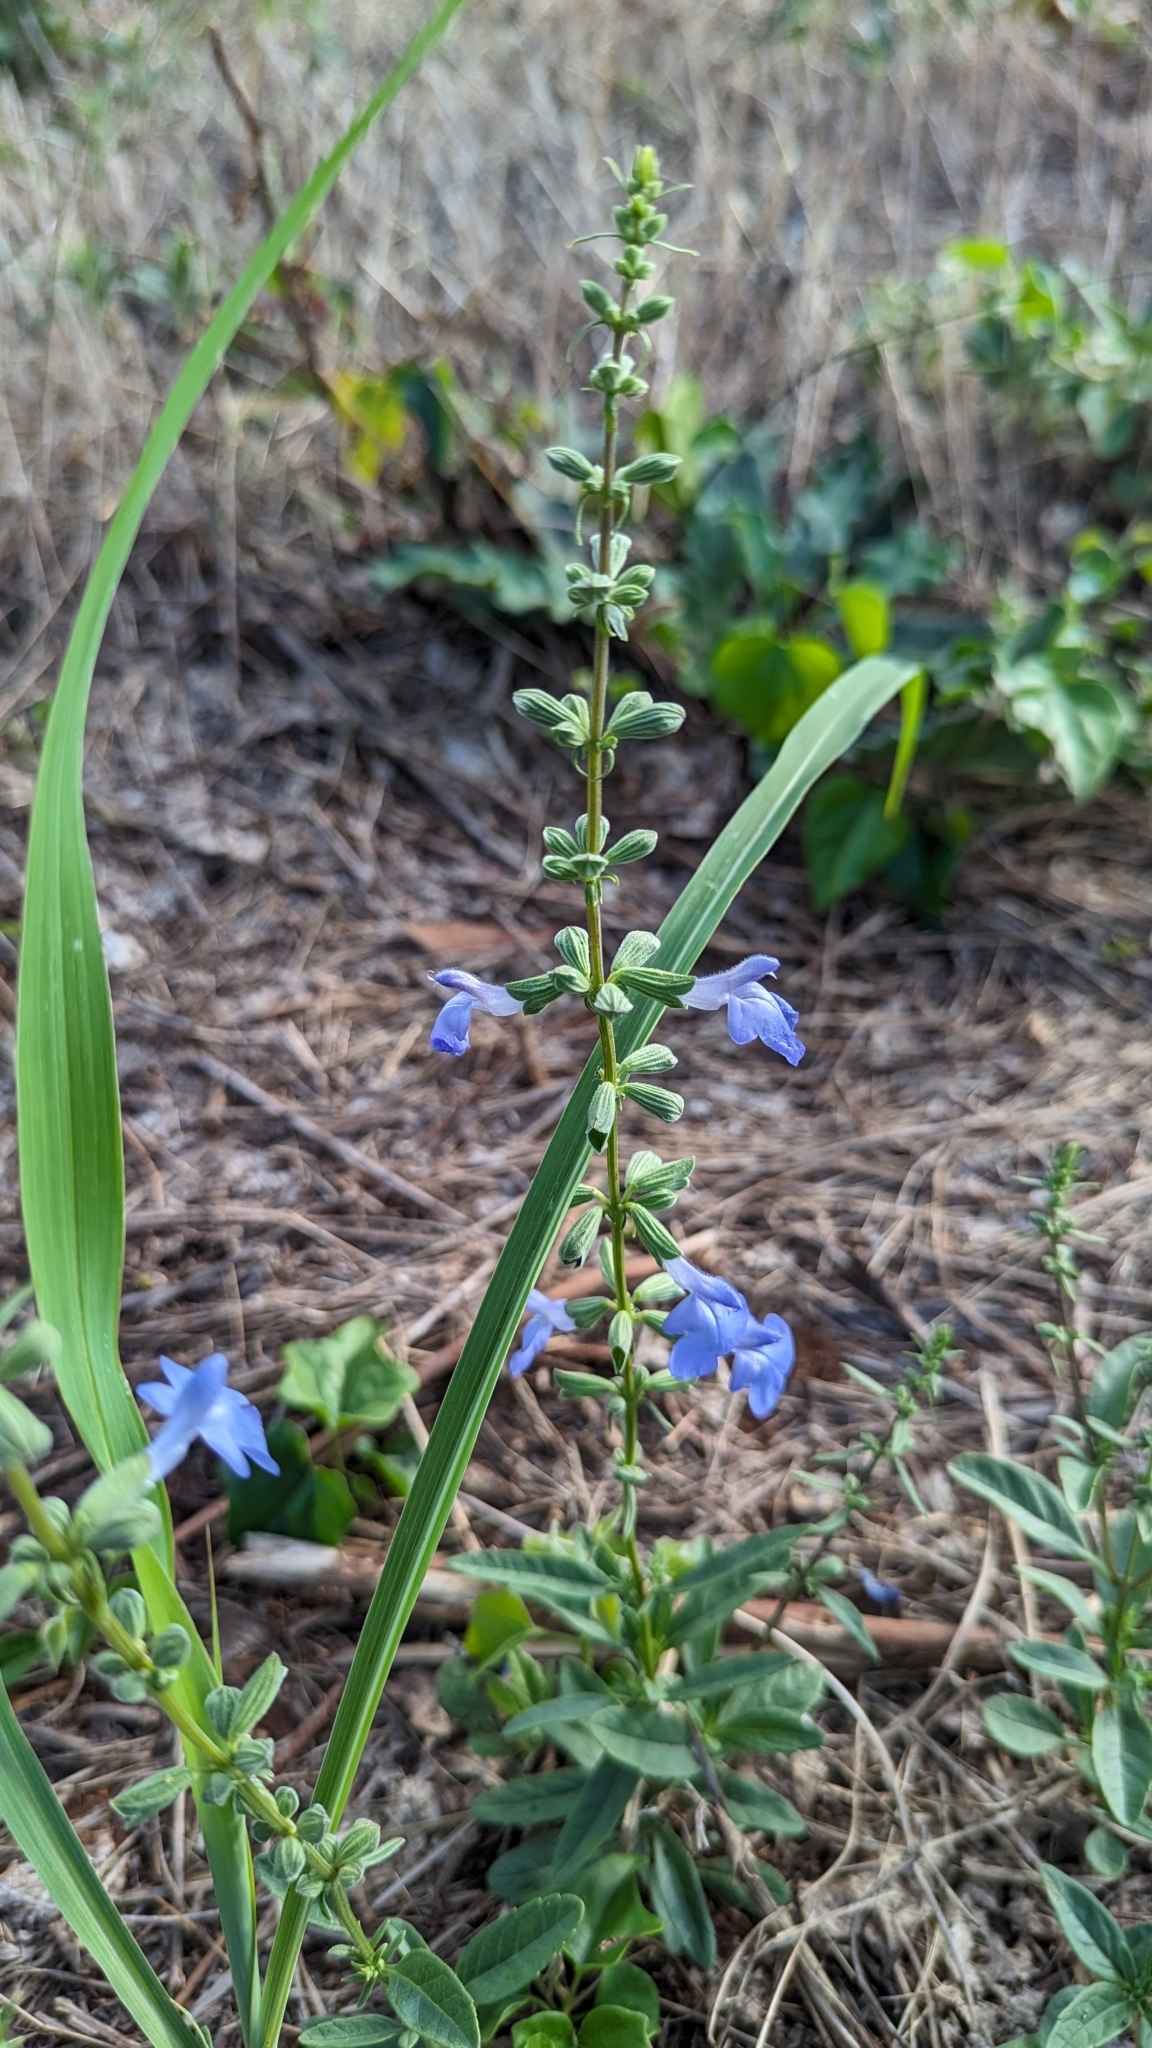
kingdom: Plantae
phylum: Tracheophyta
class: Magnoliopsida
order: Lamiales
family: Lamiaceae
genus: Salvia
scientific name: Salvia azurea
